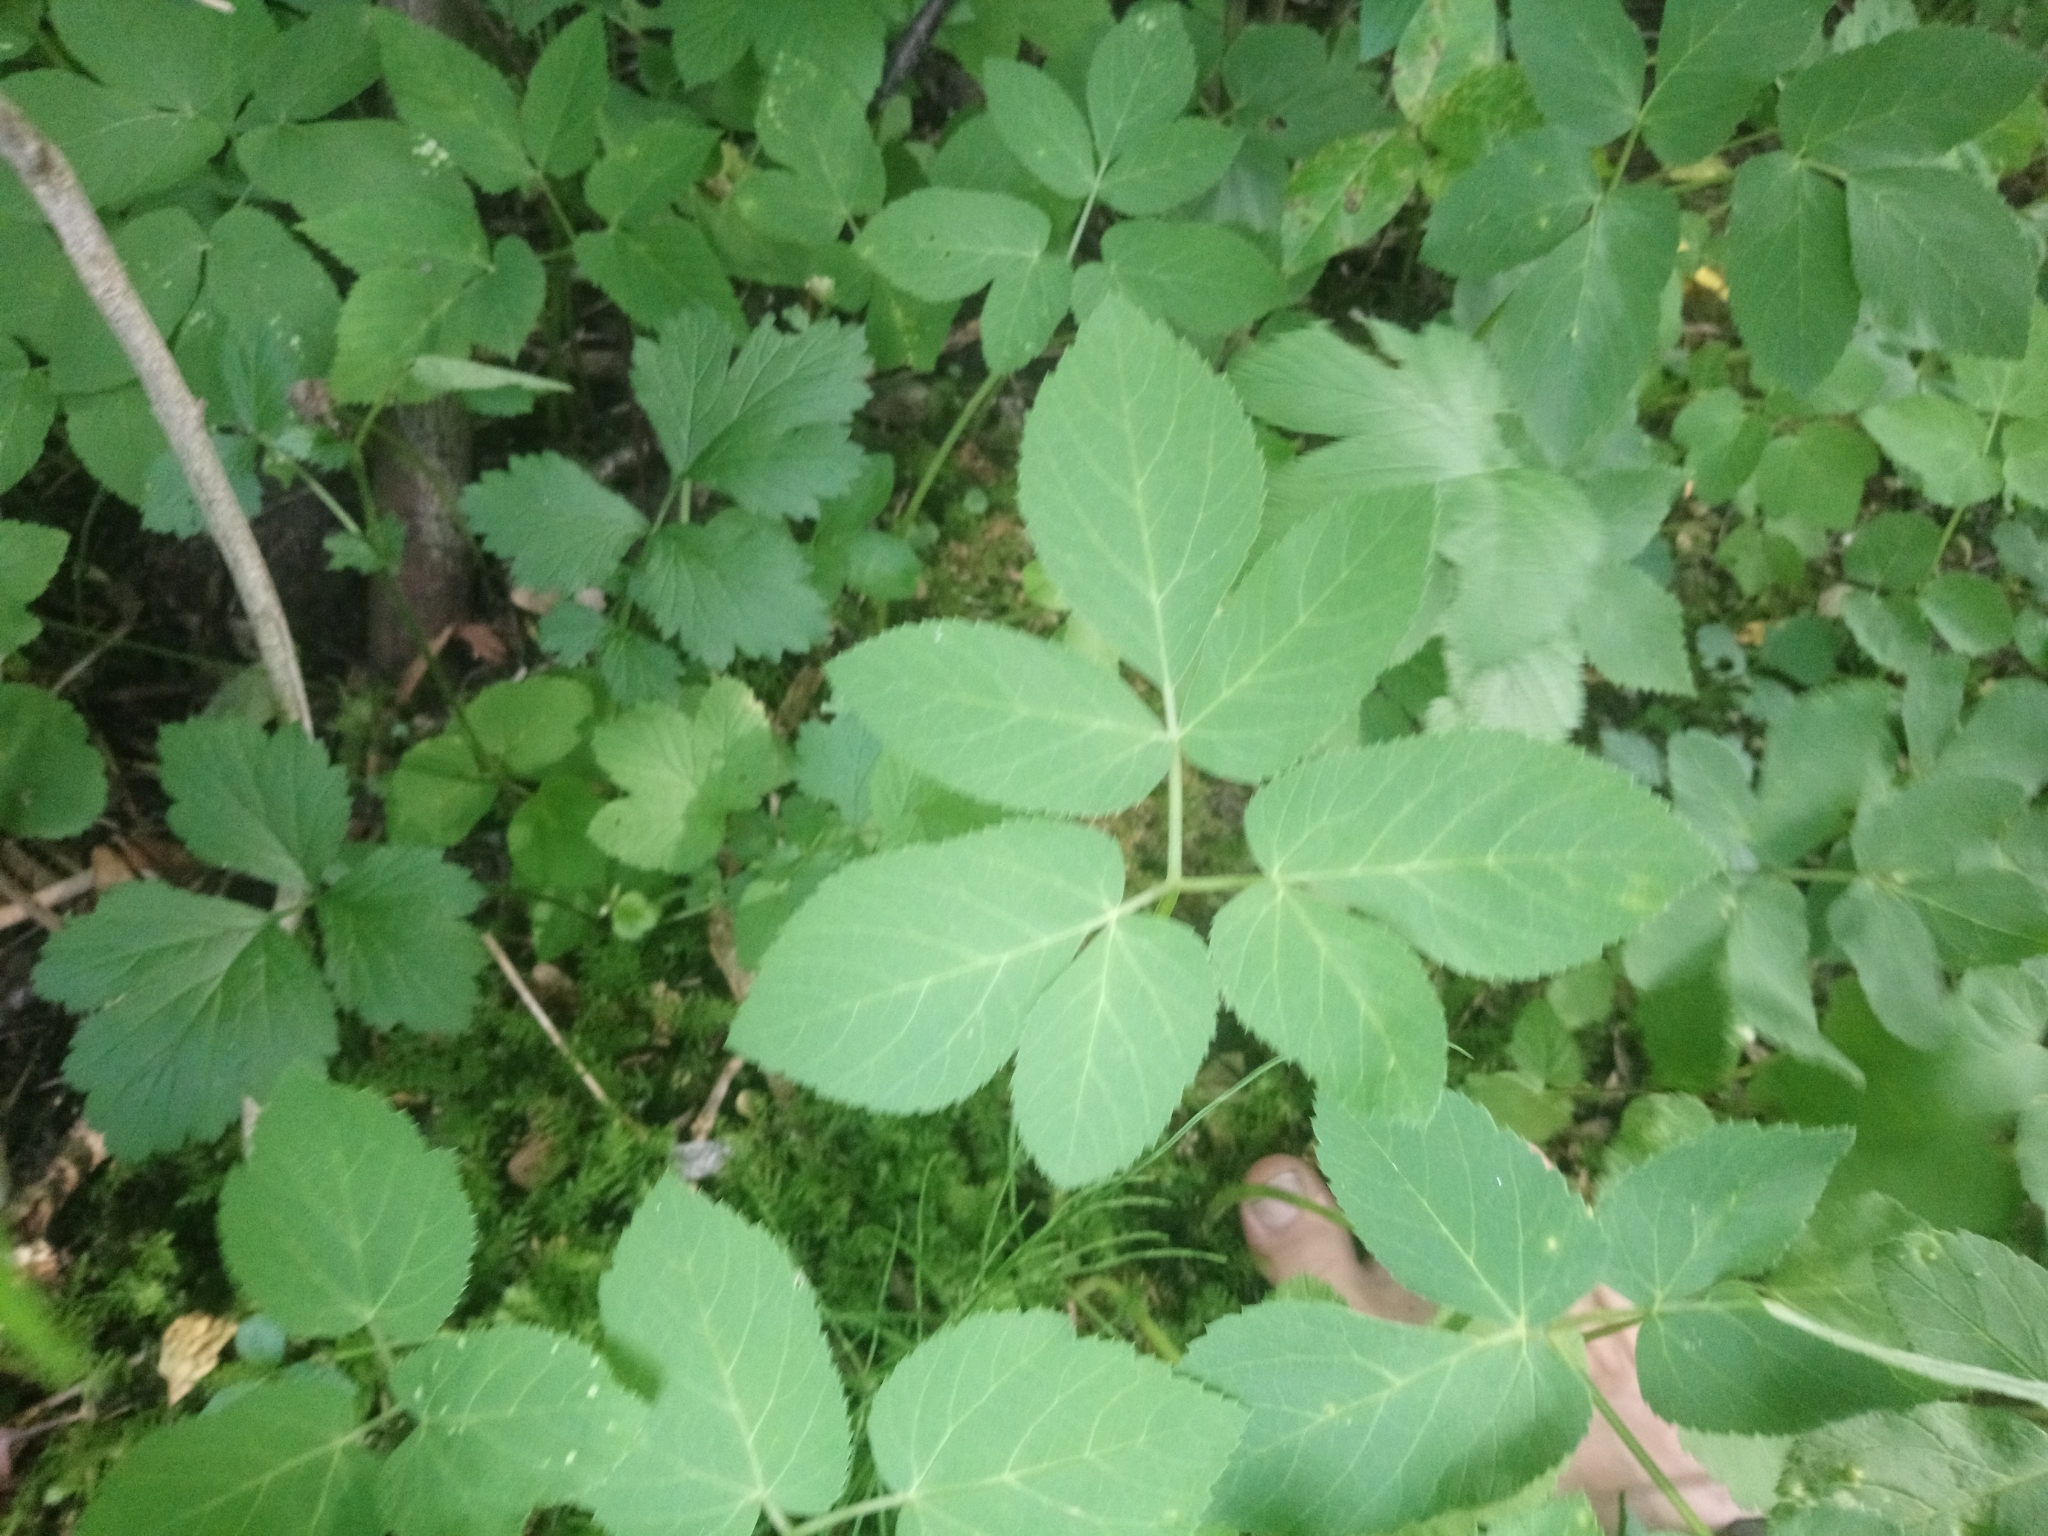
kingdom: Plantae
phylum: Tracheophyta
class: Magnoliopsida
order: Apiales
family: Apiaceae
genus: Aegopodium
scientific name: Aegopodium podagraria
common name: Ground-elder
